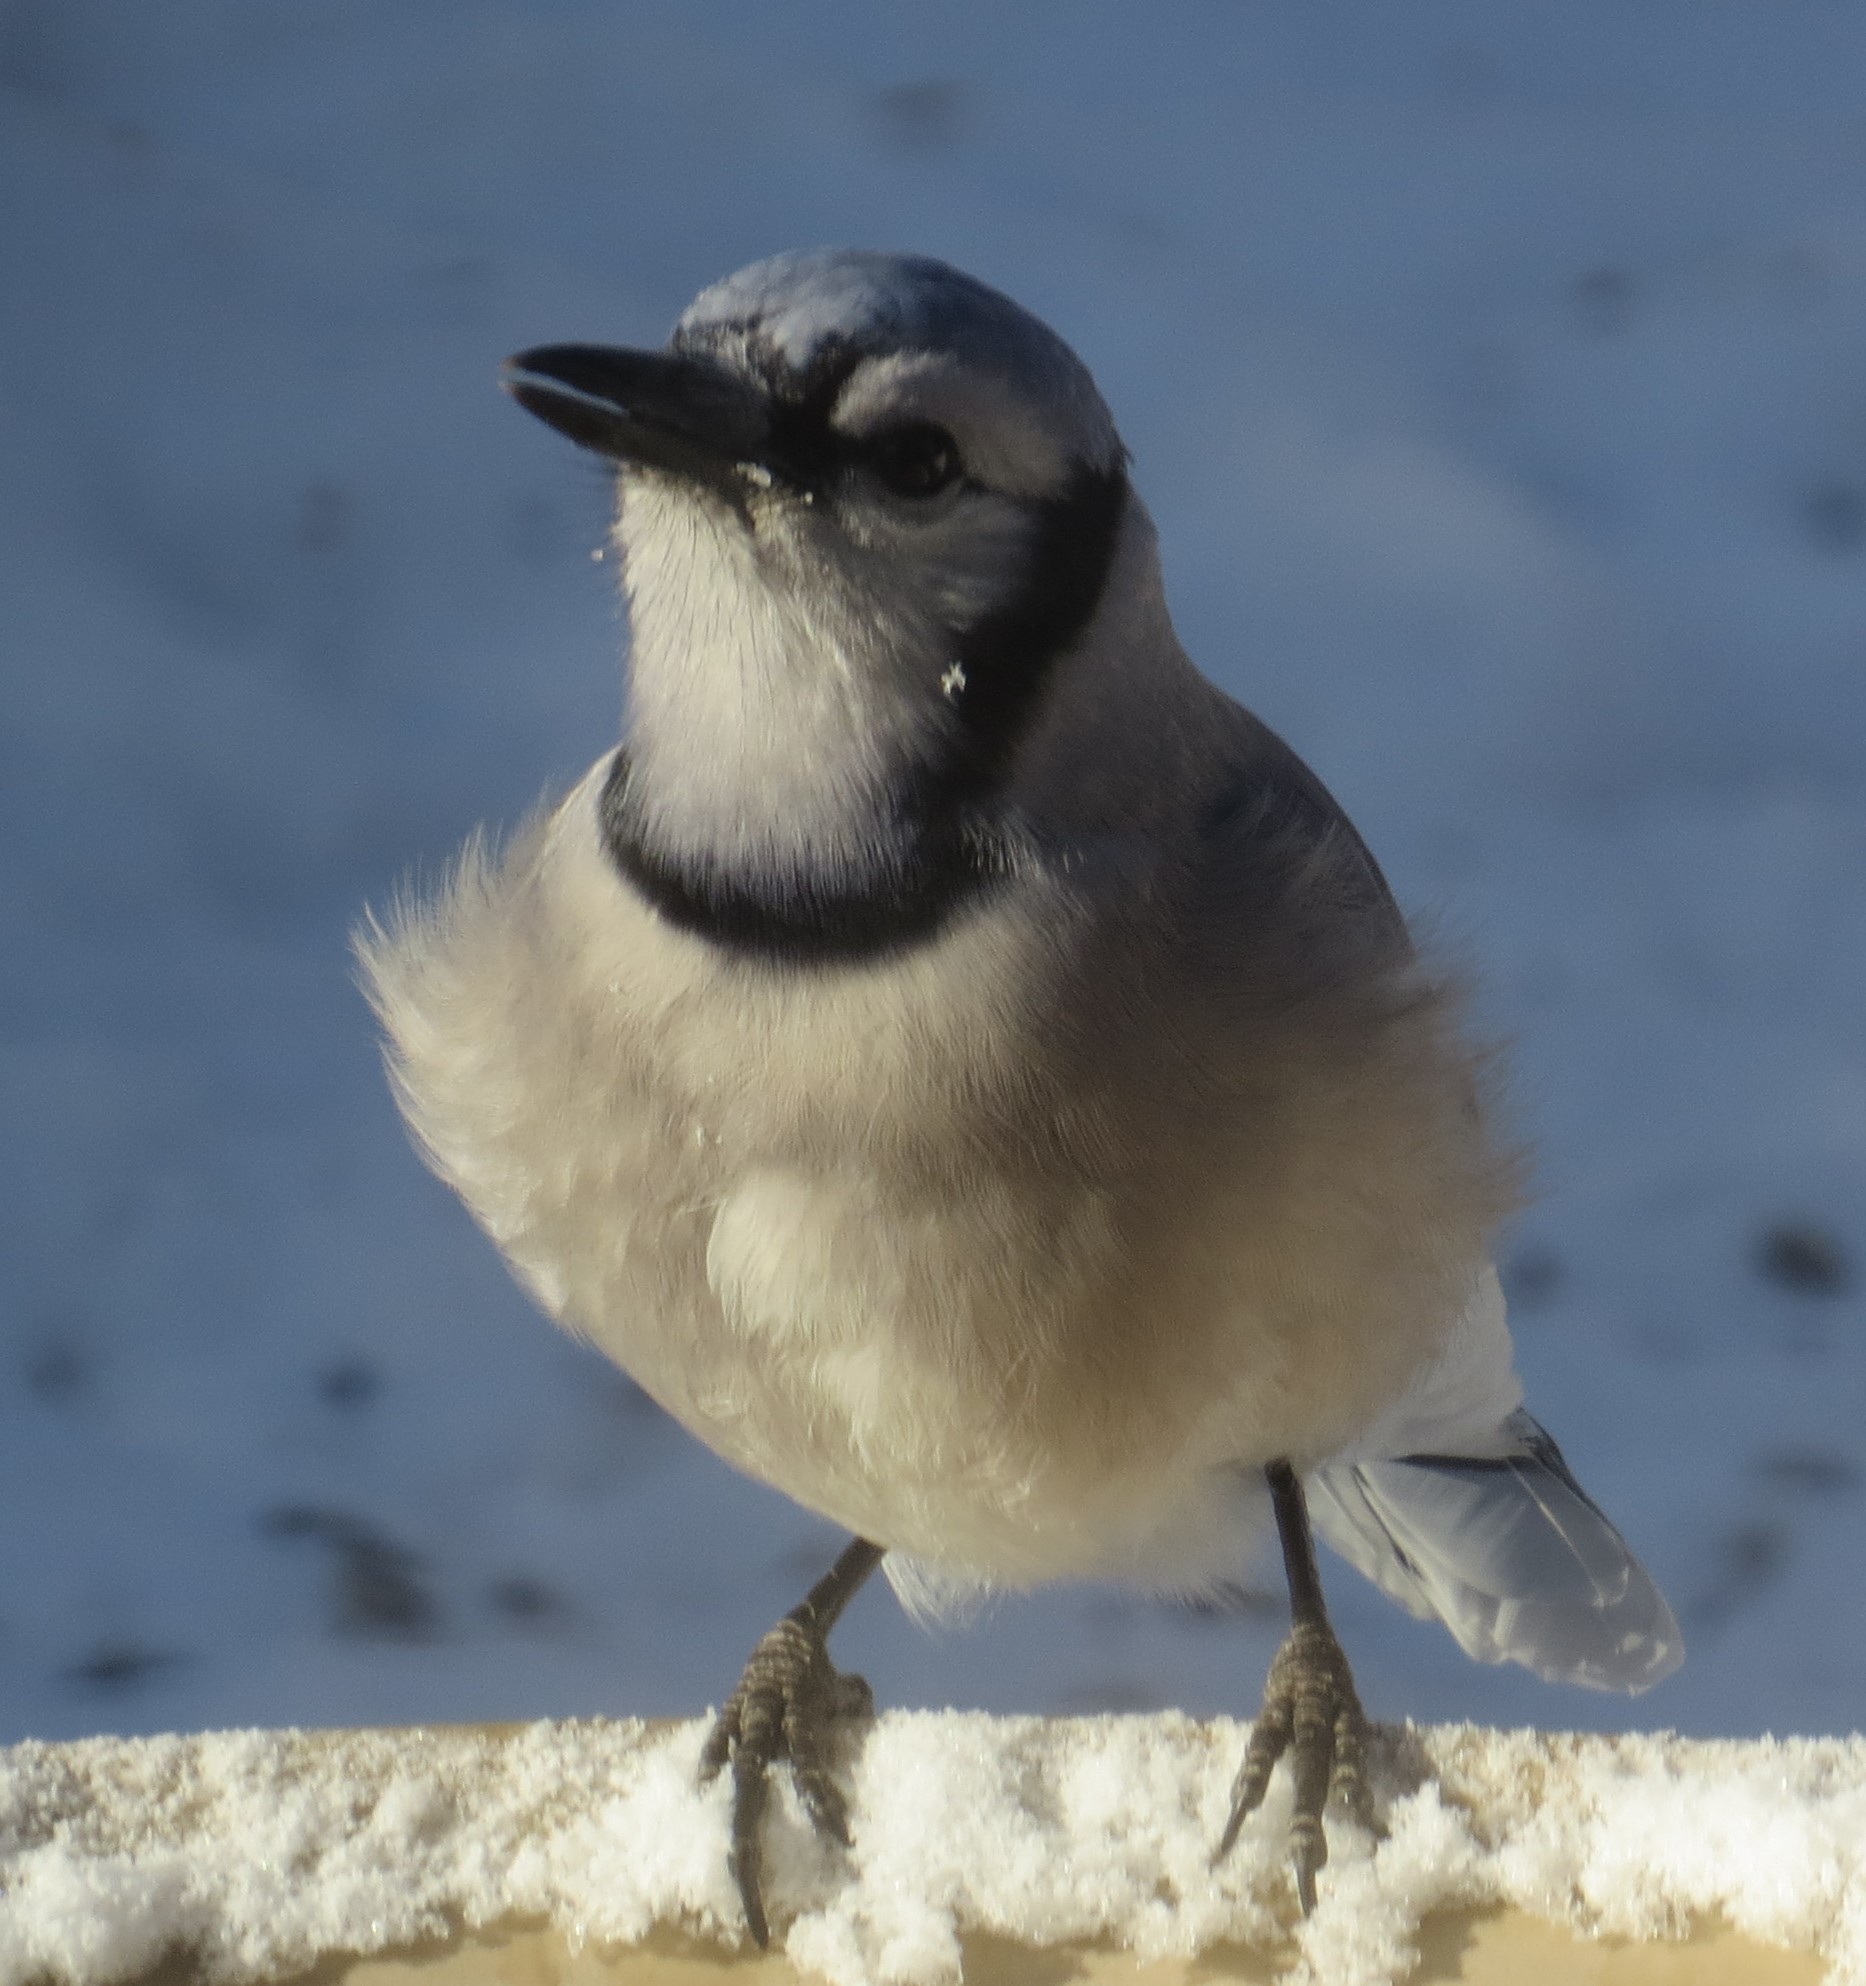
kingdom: Animalia
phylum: Chordata
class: Aves
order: Passeriformes
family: Corvidae
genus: Cyanocitta
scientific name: Cyanocitta cristata
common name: Blue jay
